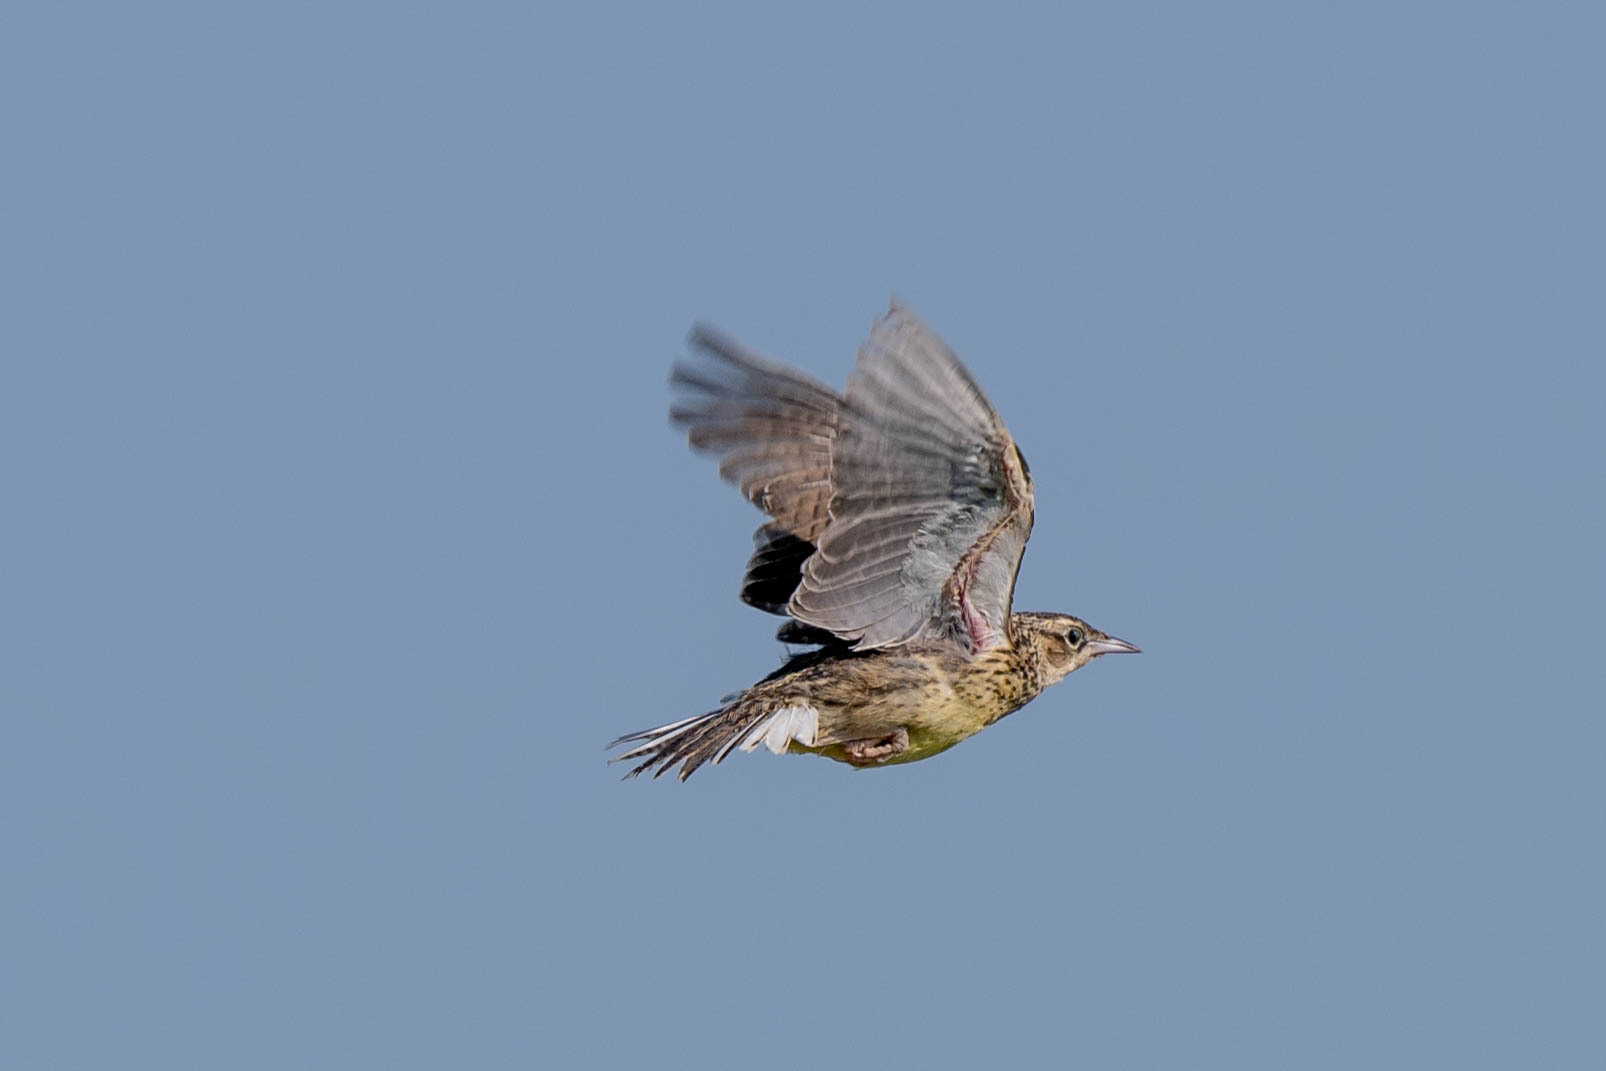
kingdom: Animalia
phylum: Chordata
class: Aves
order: Passeriformes
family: Icteridae
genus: Sturnella
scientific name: Sturnella magna
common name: Eastern meadowlark
